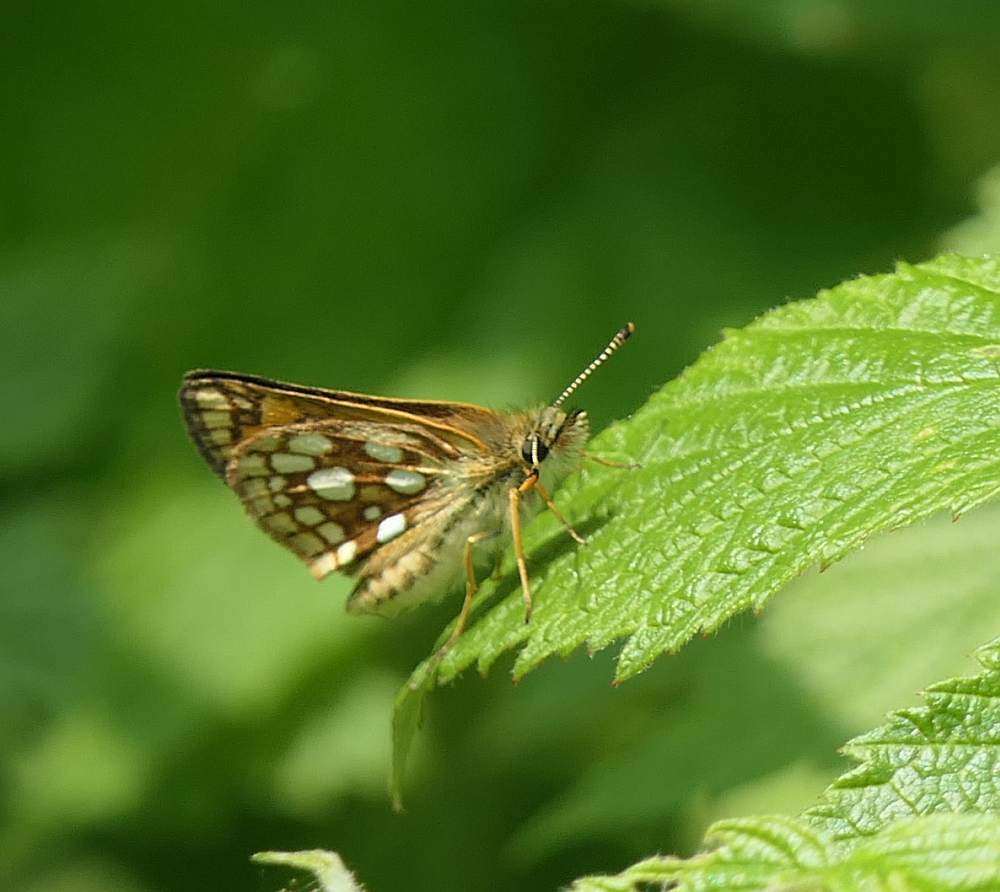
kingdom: Animalia
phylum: Arthropoda
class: Insecta
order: Lepidoptera
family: Hesperiidae
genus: Carterocephalus
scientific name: Carterocephalus mandan
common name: Arctic skipperling
